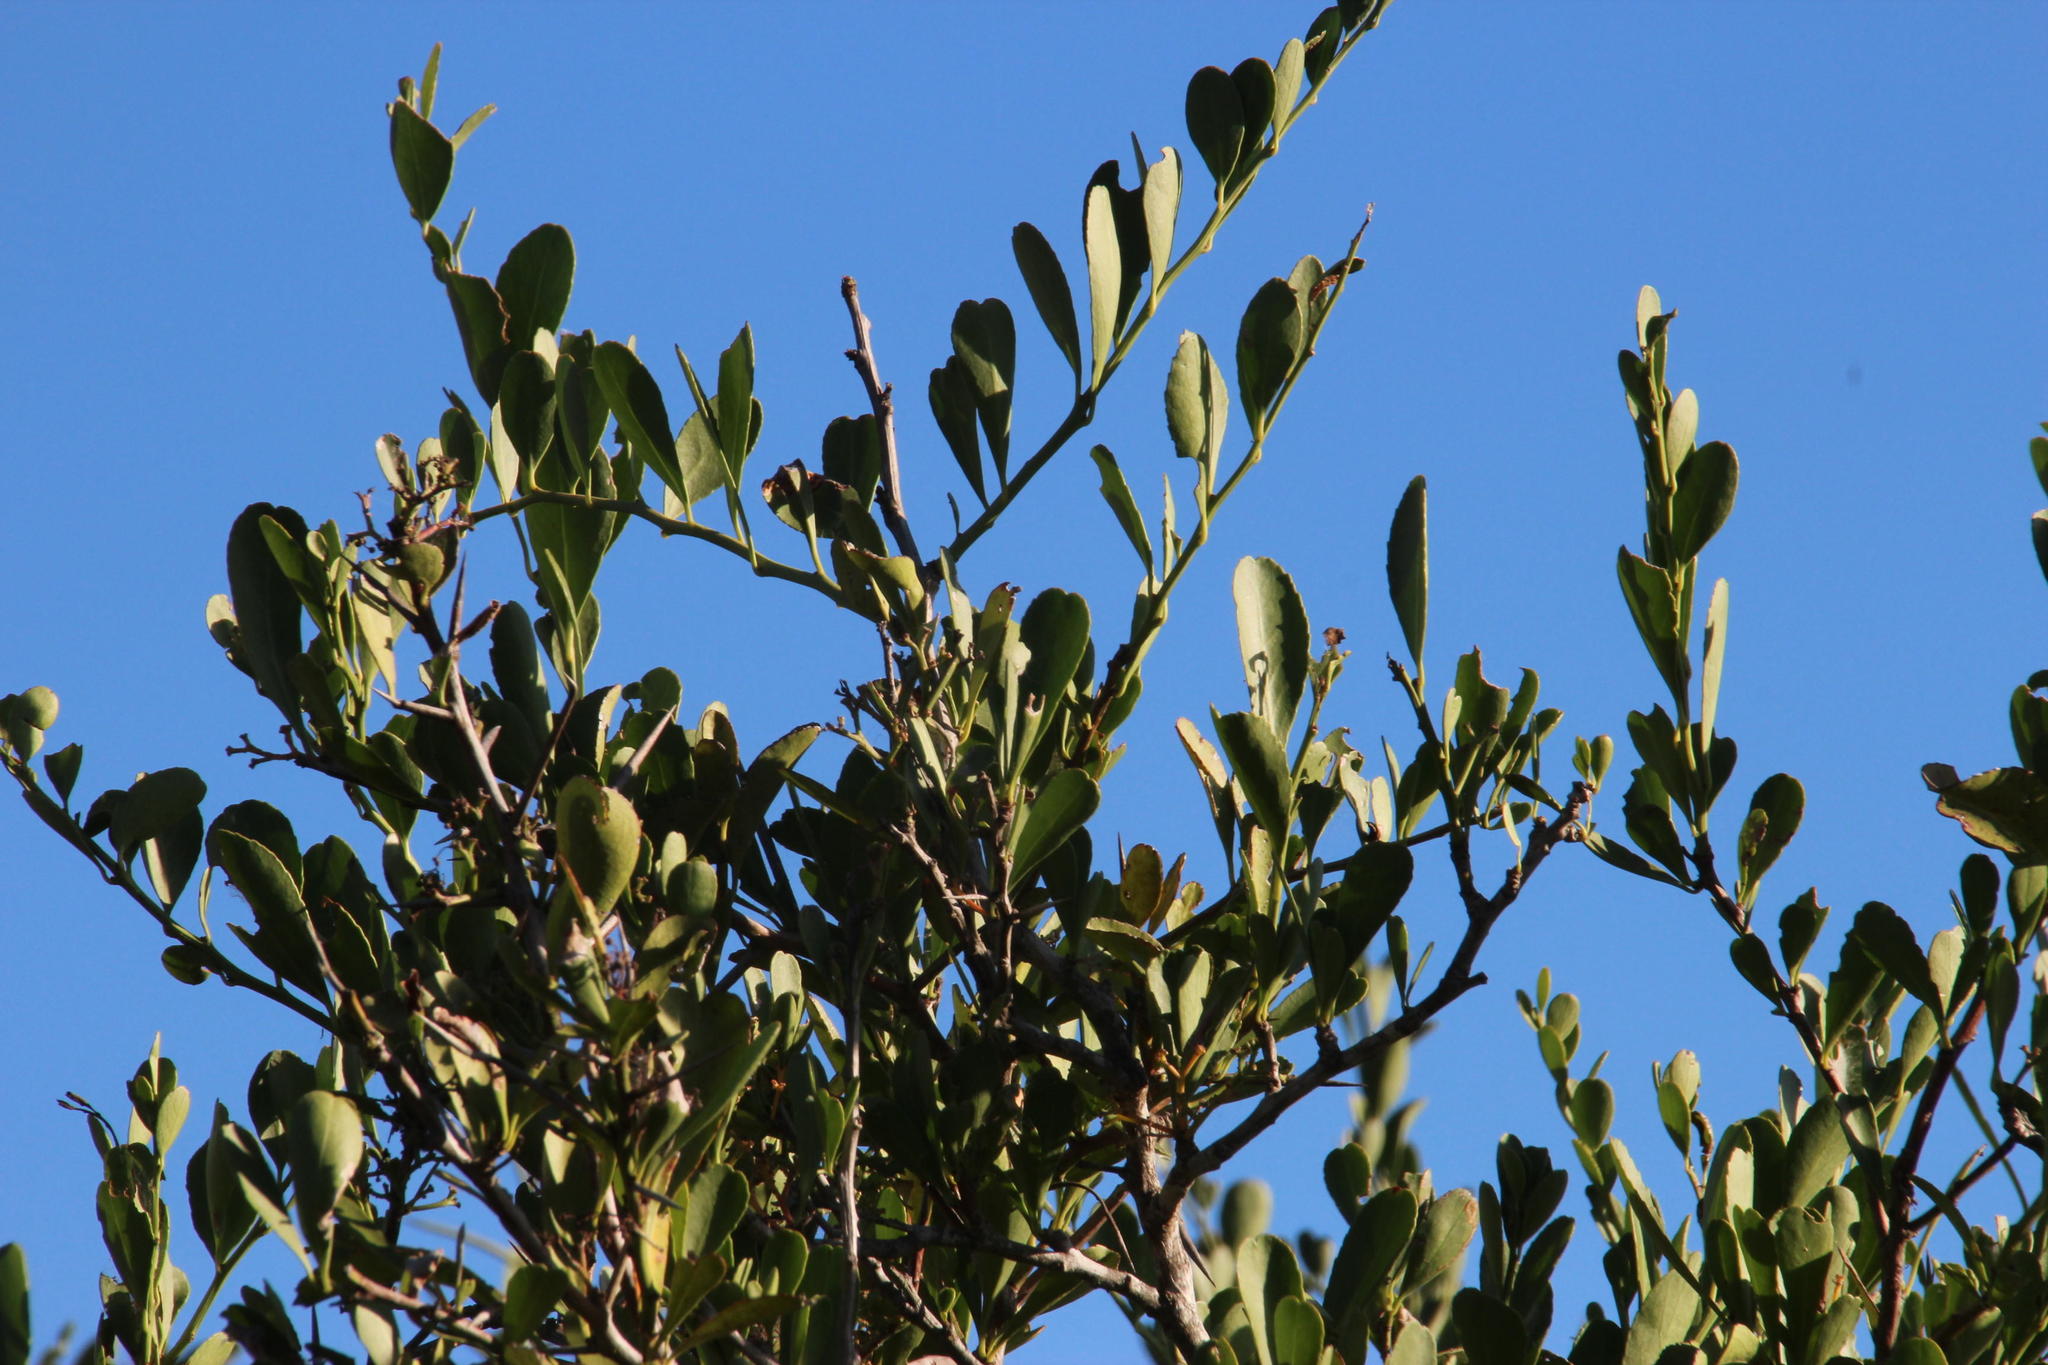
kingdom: Plantae
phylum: Tracheophyta
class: Magnoliopsida
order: Celastrales
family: Celastraceae
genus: Gymnosporia
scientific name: Gymnosporia buxifolia
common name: Common spike-thorn
